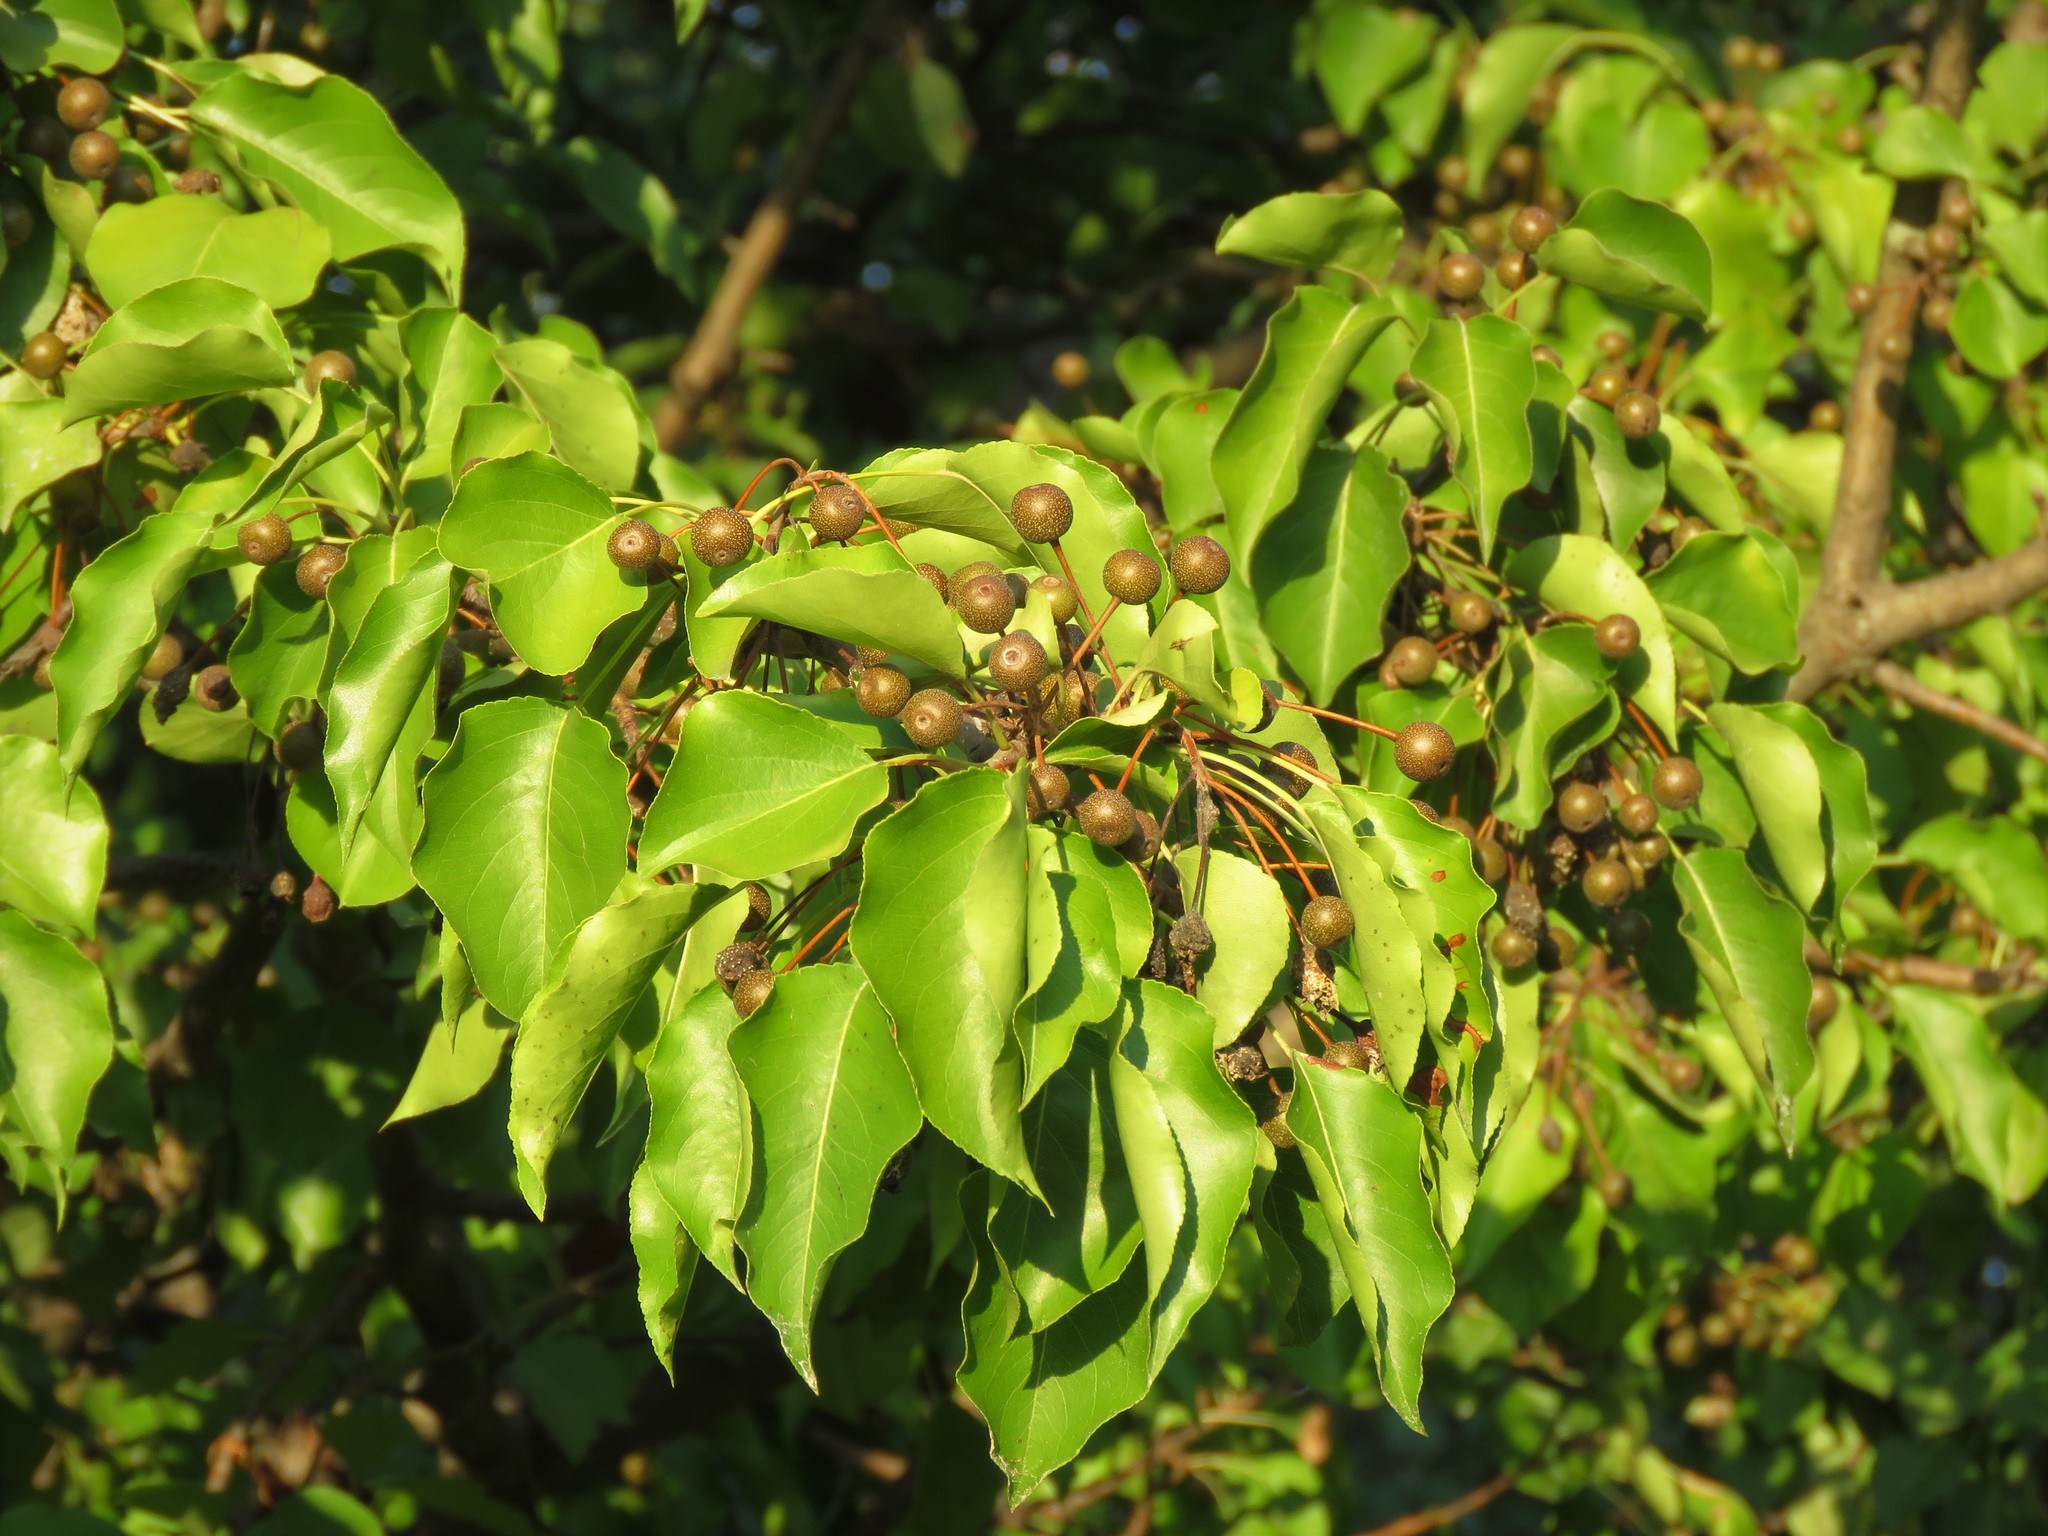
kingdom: Plantae
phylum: Tracheophyta
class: Magnoliopsida
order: Rosales
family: Rosaceae
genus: Pyrus
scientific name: Pyrus calleryana
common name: Callery pear
